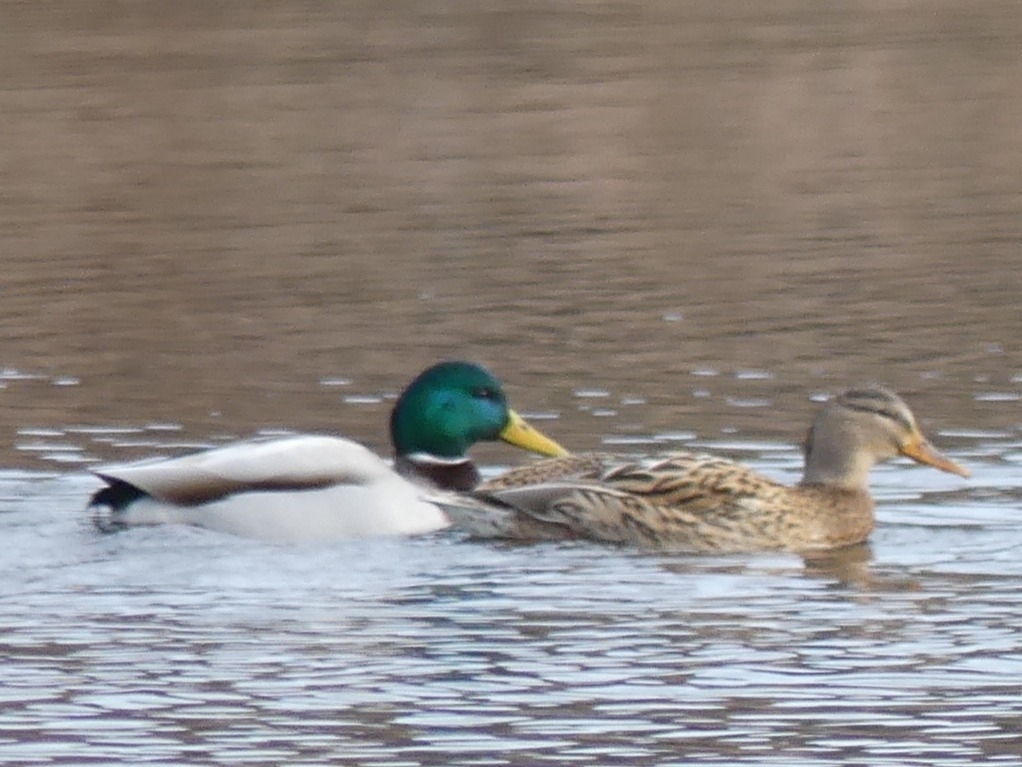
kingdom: Animalia
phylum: Chordata
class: Aves
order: Anseriformes
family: Anatidae
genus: Anas
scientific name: Anas platyrhynchos
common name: Mallard
